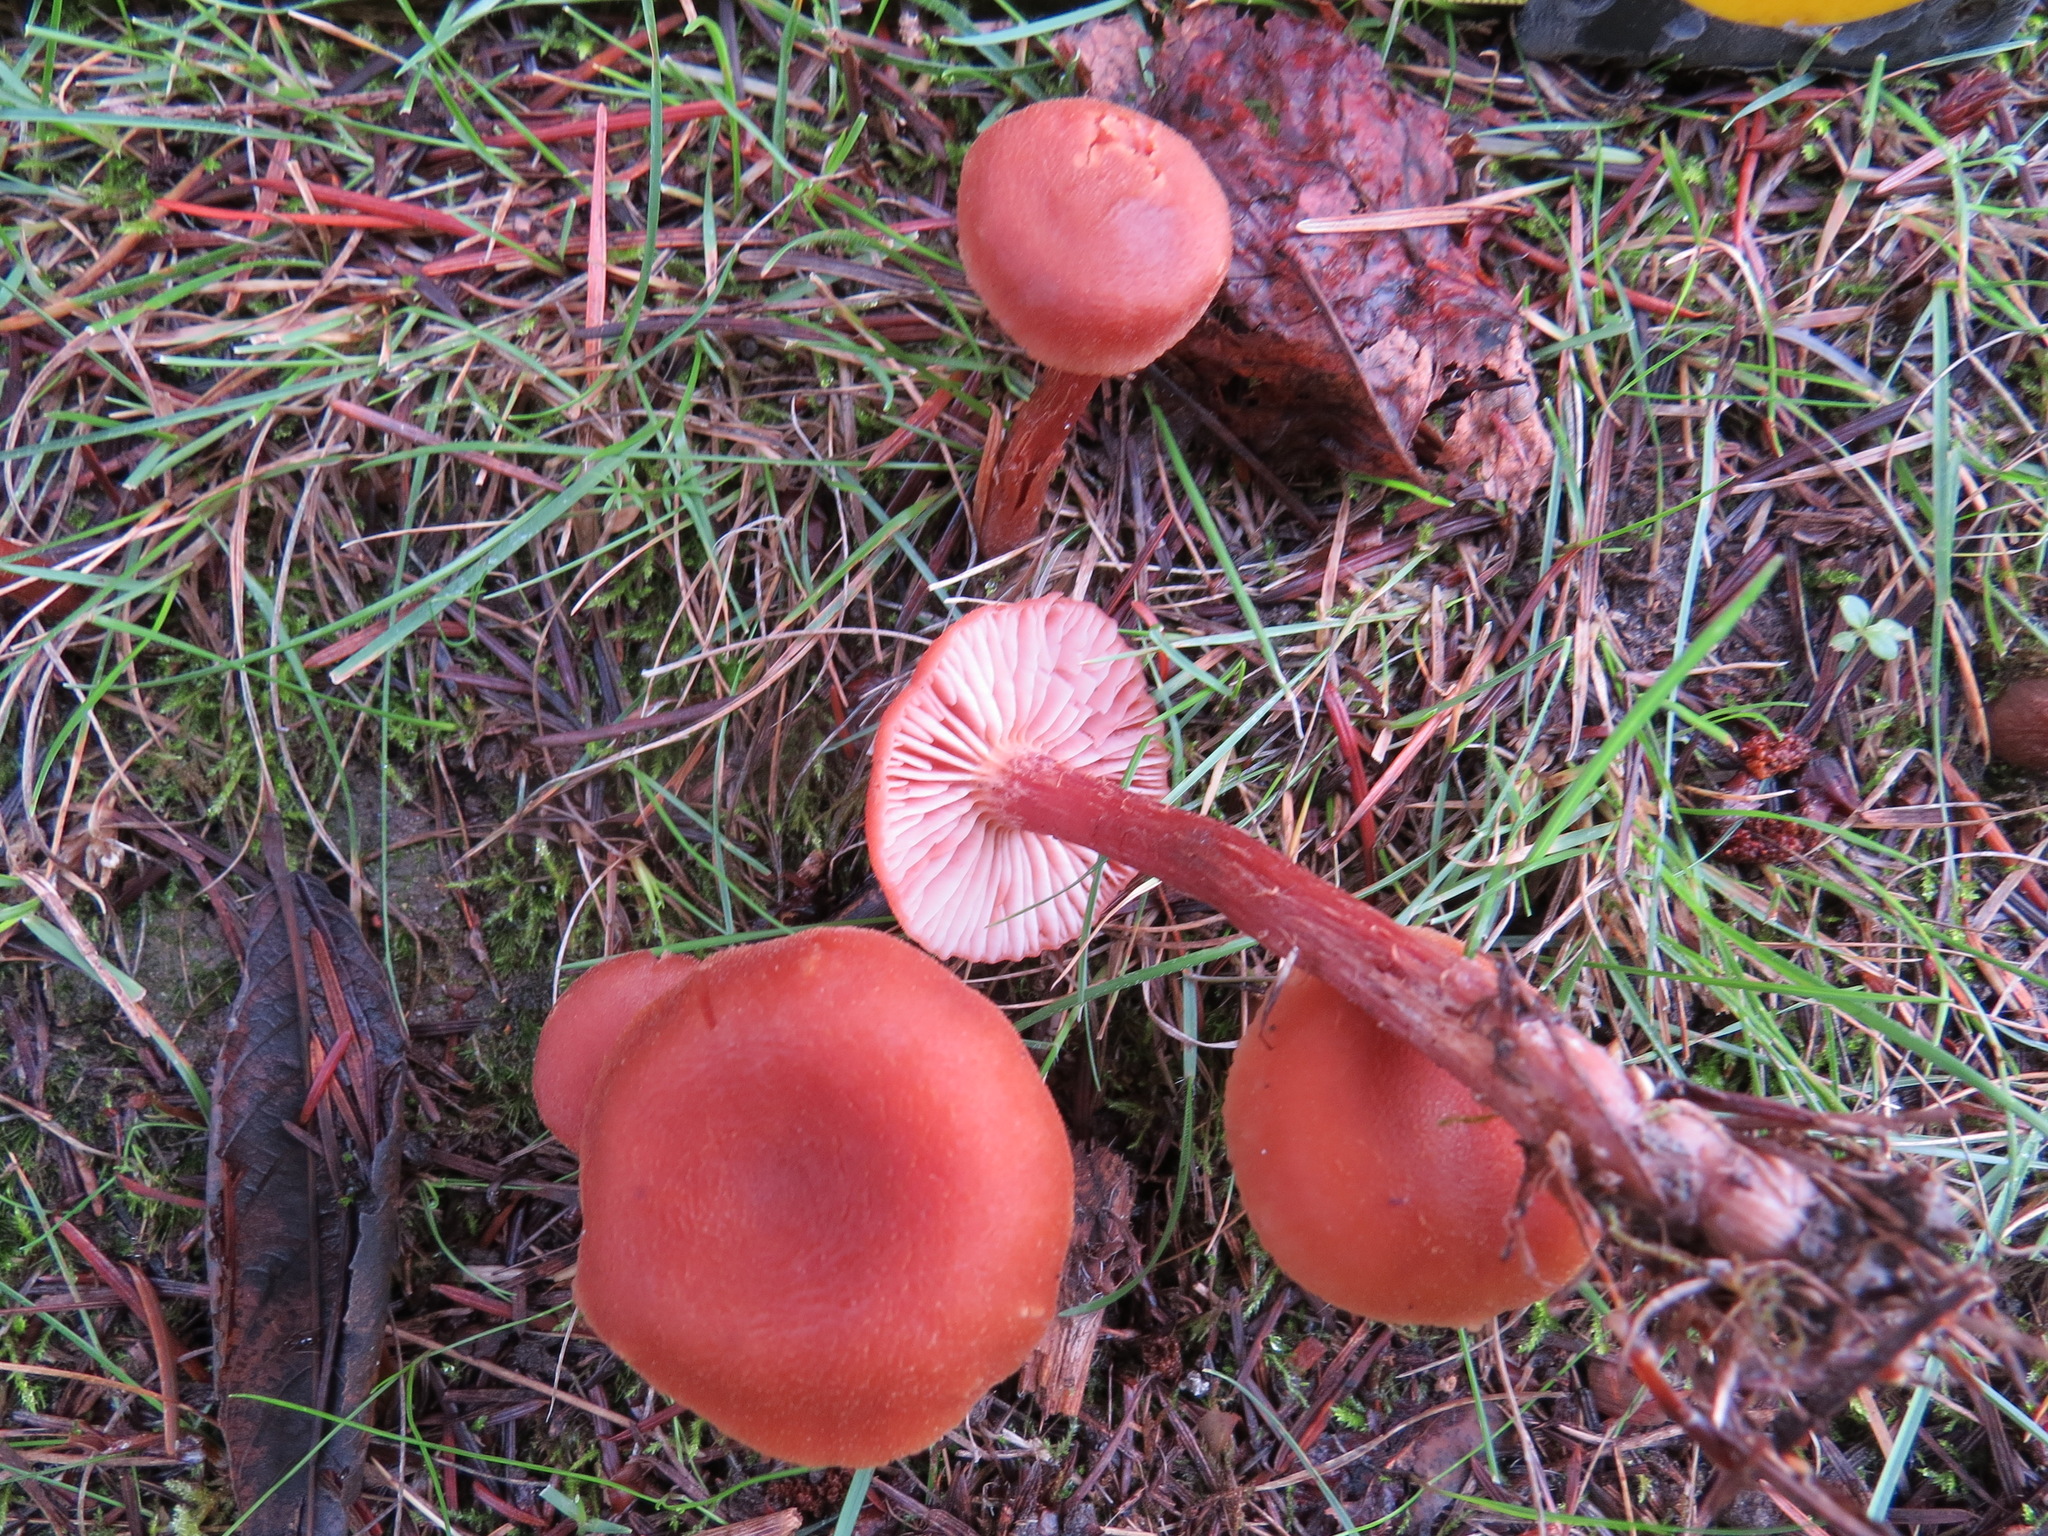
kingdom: Fungi
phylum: Basidiomycota
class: Agaricomycetes
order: Agaricales
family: Hydnangiaceae
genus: Laccaria
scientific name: Laccaria laccata
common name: Deceiver
